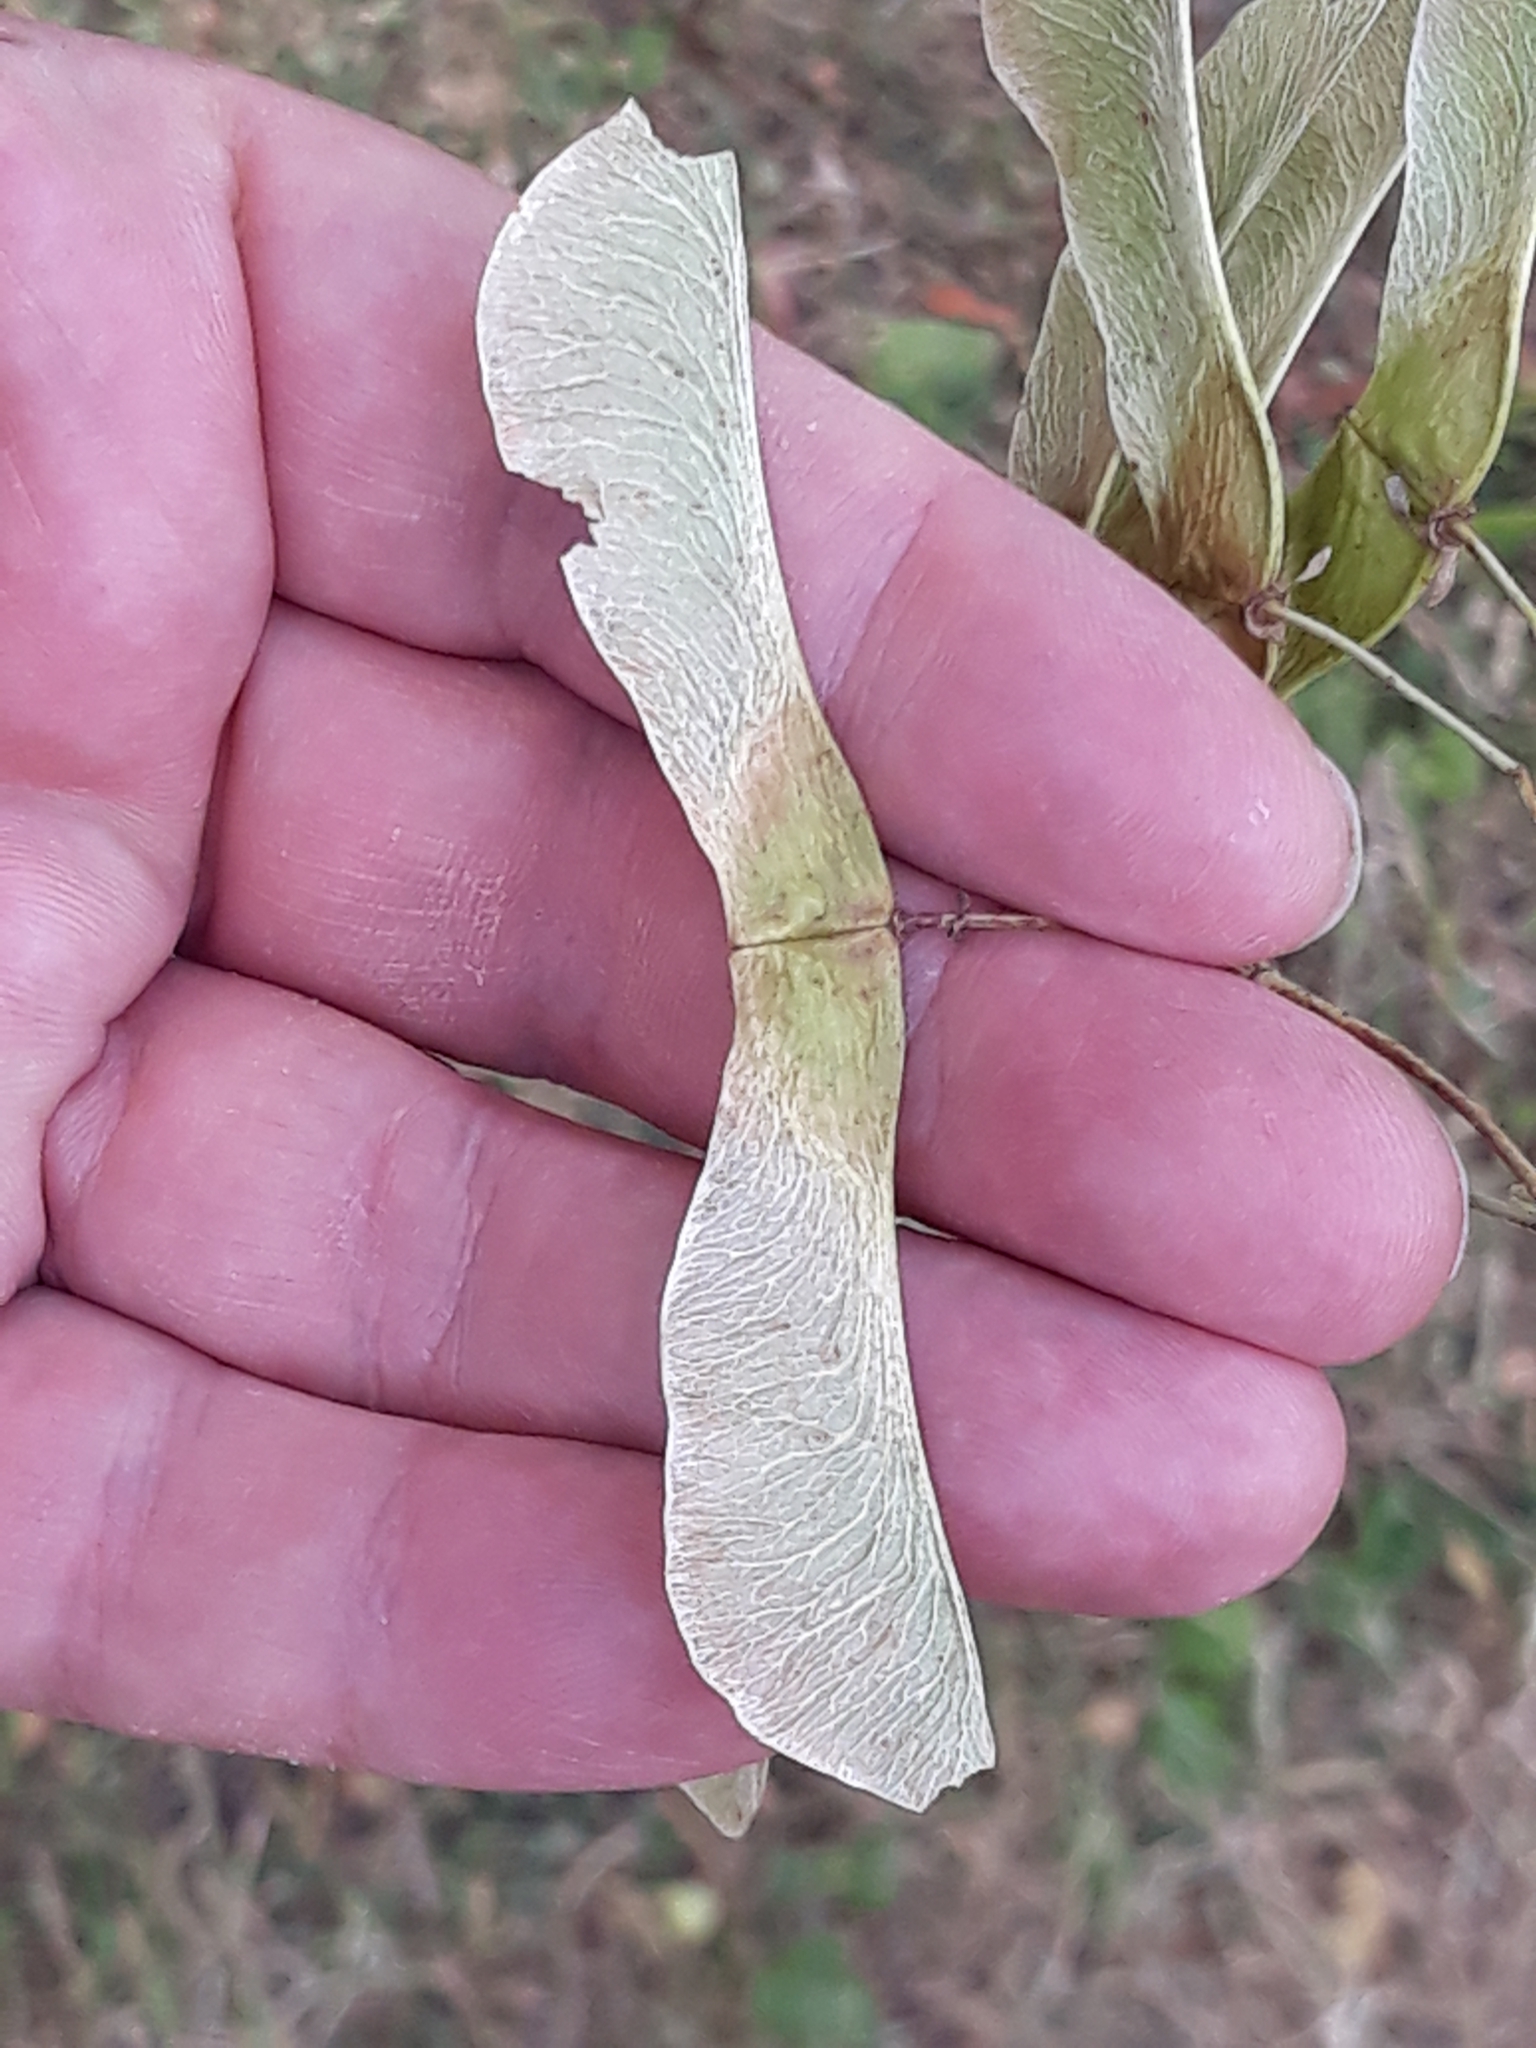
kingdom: Plantae
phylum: Tracheophyta
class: Magnoliopsida
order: Sapindales
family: Sapindaceae
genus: Acer
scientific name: Acer platanoides
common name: Norway maple
